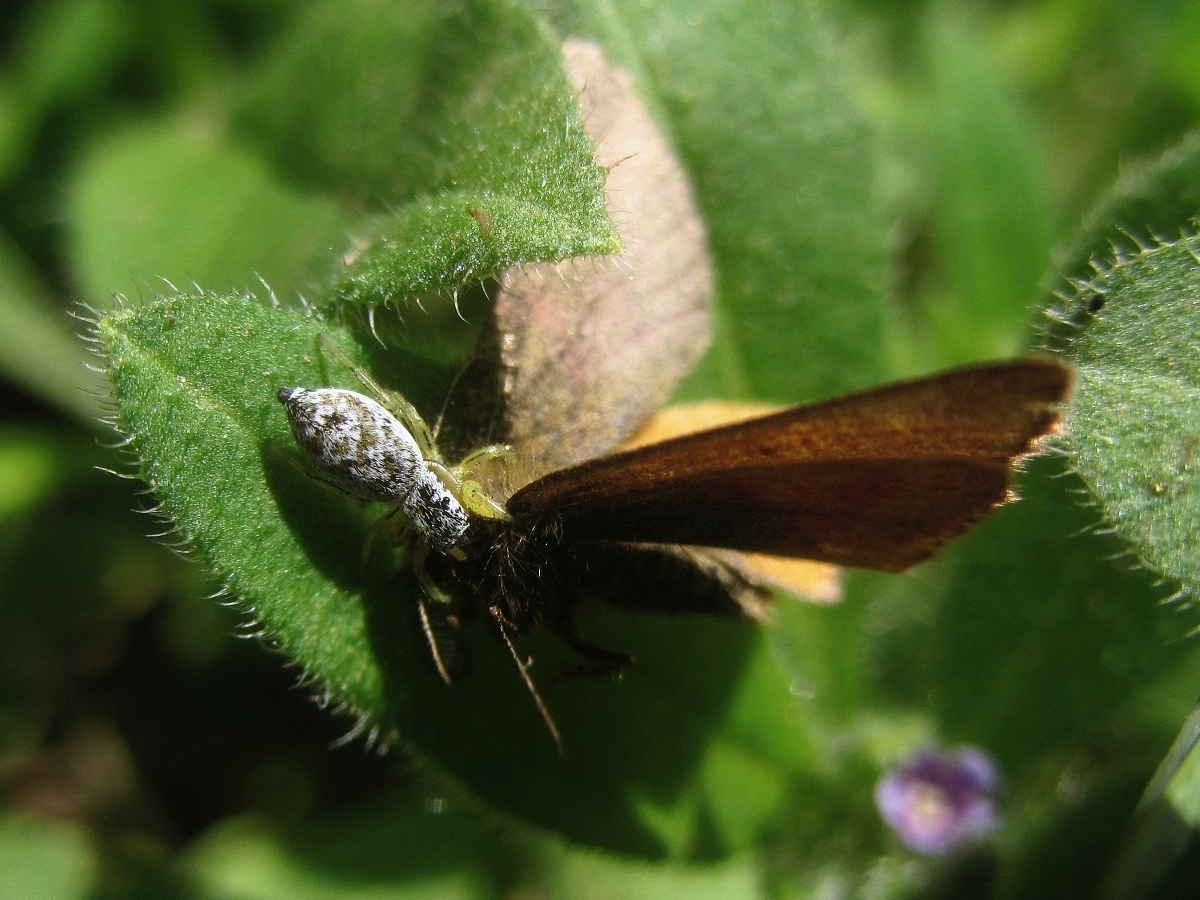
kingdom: Animalia
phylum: Arthropoda
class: Arachnida
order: Araneae
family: Salticidae
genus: Heliophanus
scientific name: Heliophanus simplex
